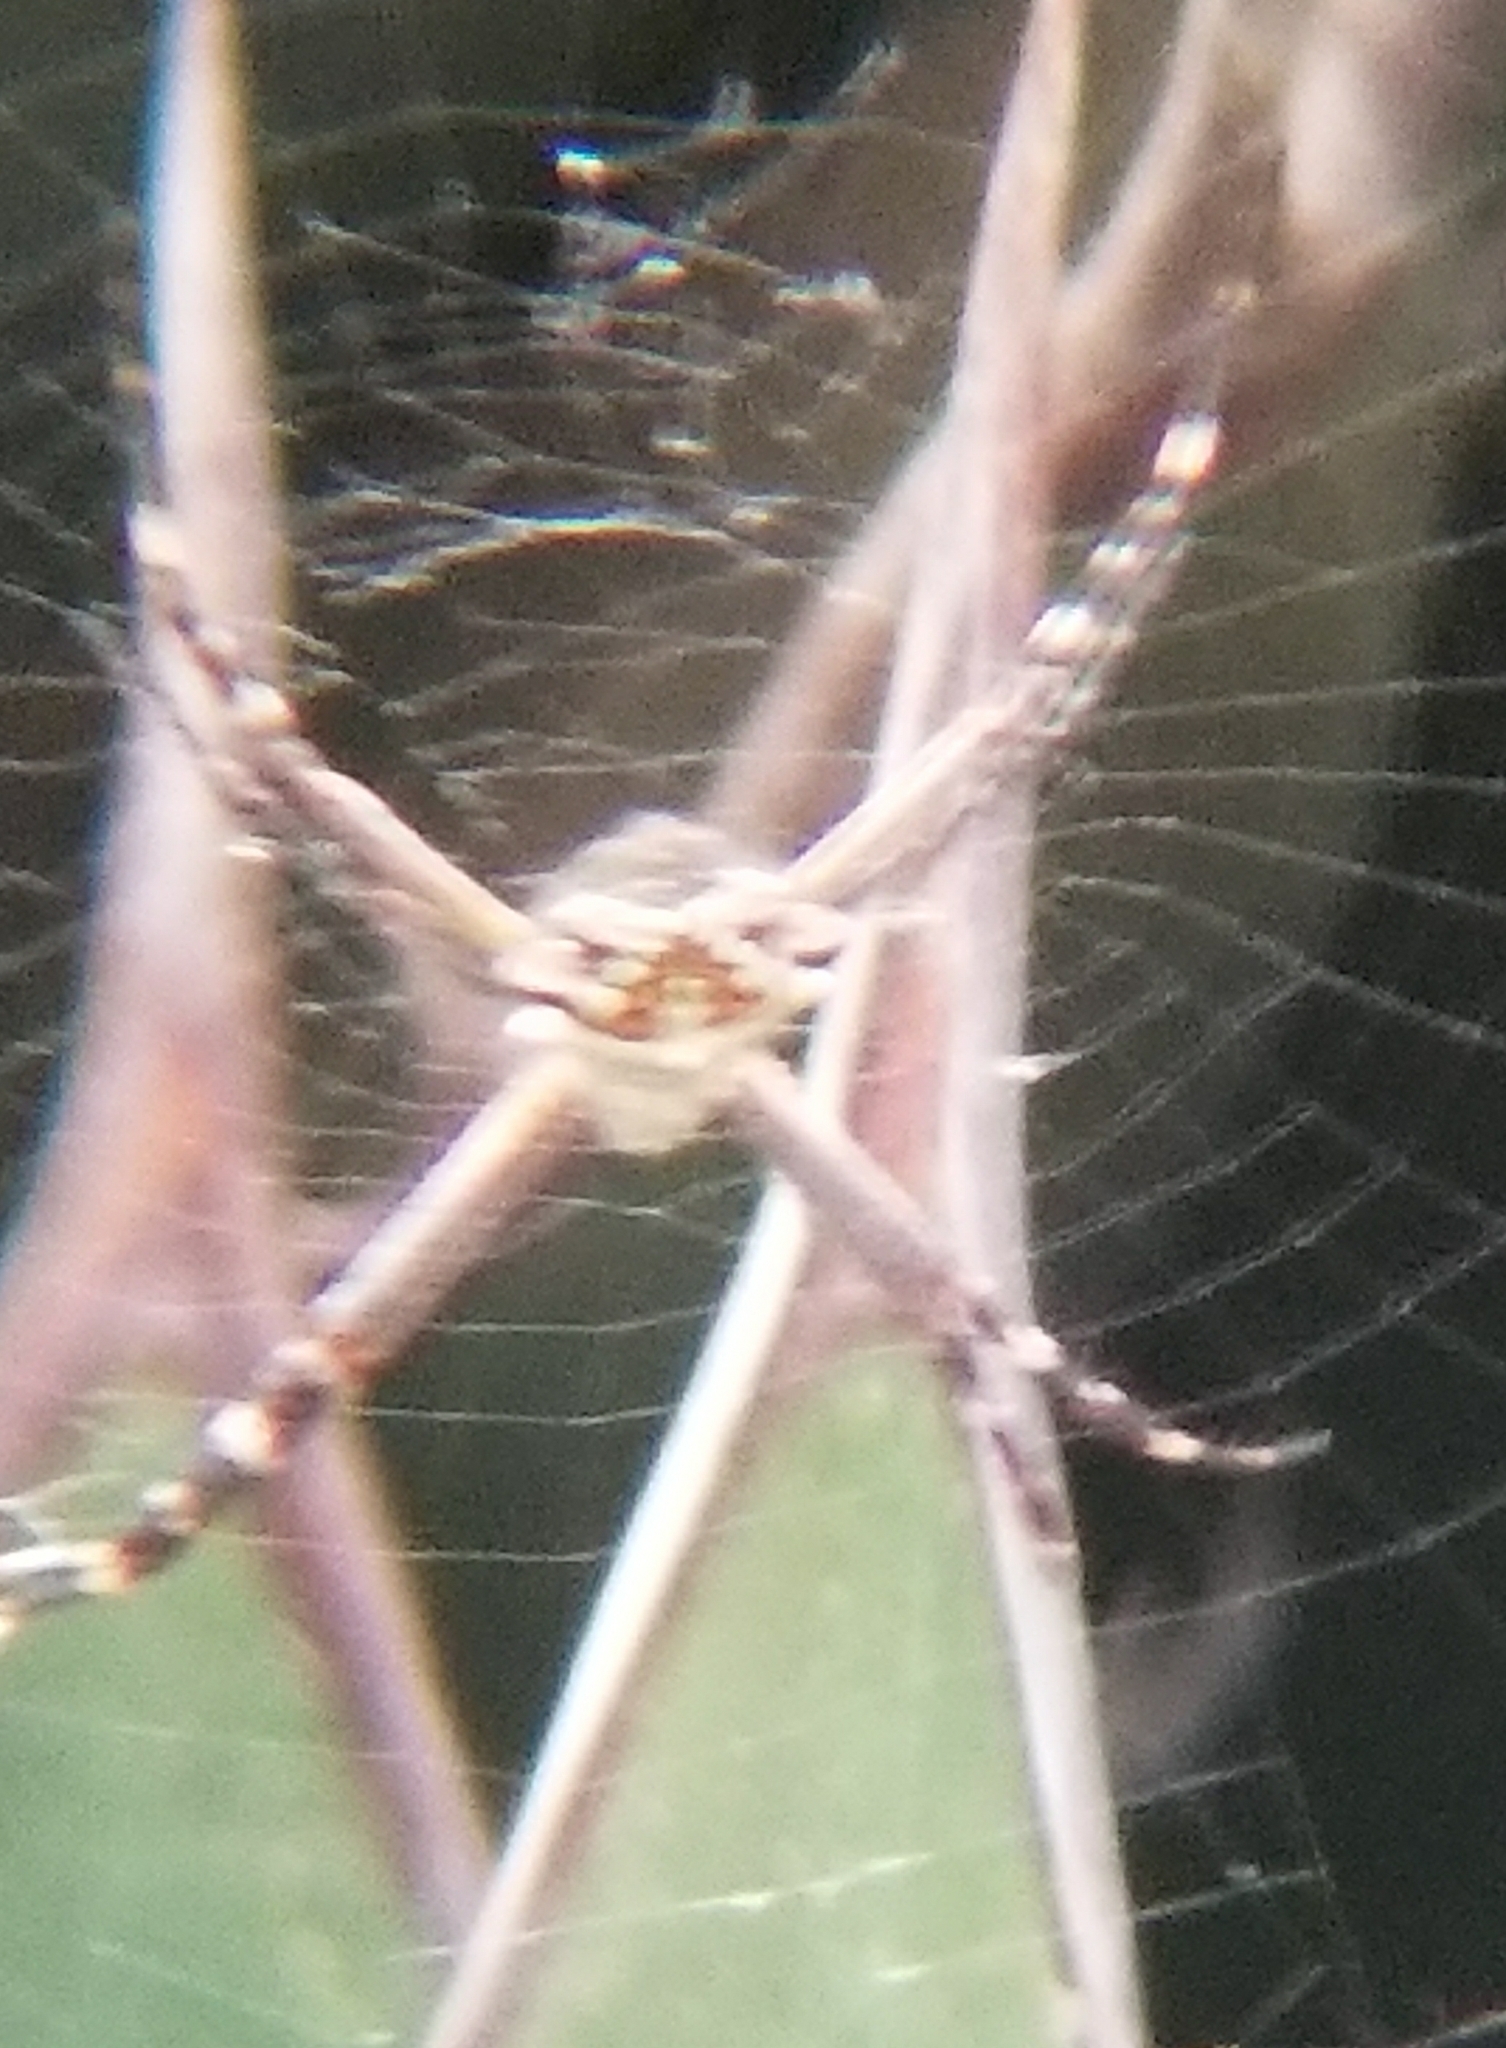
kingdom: Animalia
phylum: Arthropoda
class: Arachnida
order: Araneae
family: Araneidae
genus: Argiope
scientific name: Argiope argentata
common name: Orb weavers
